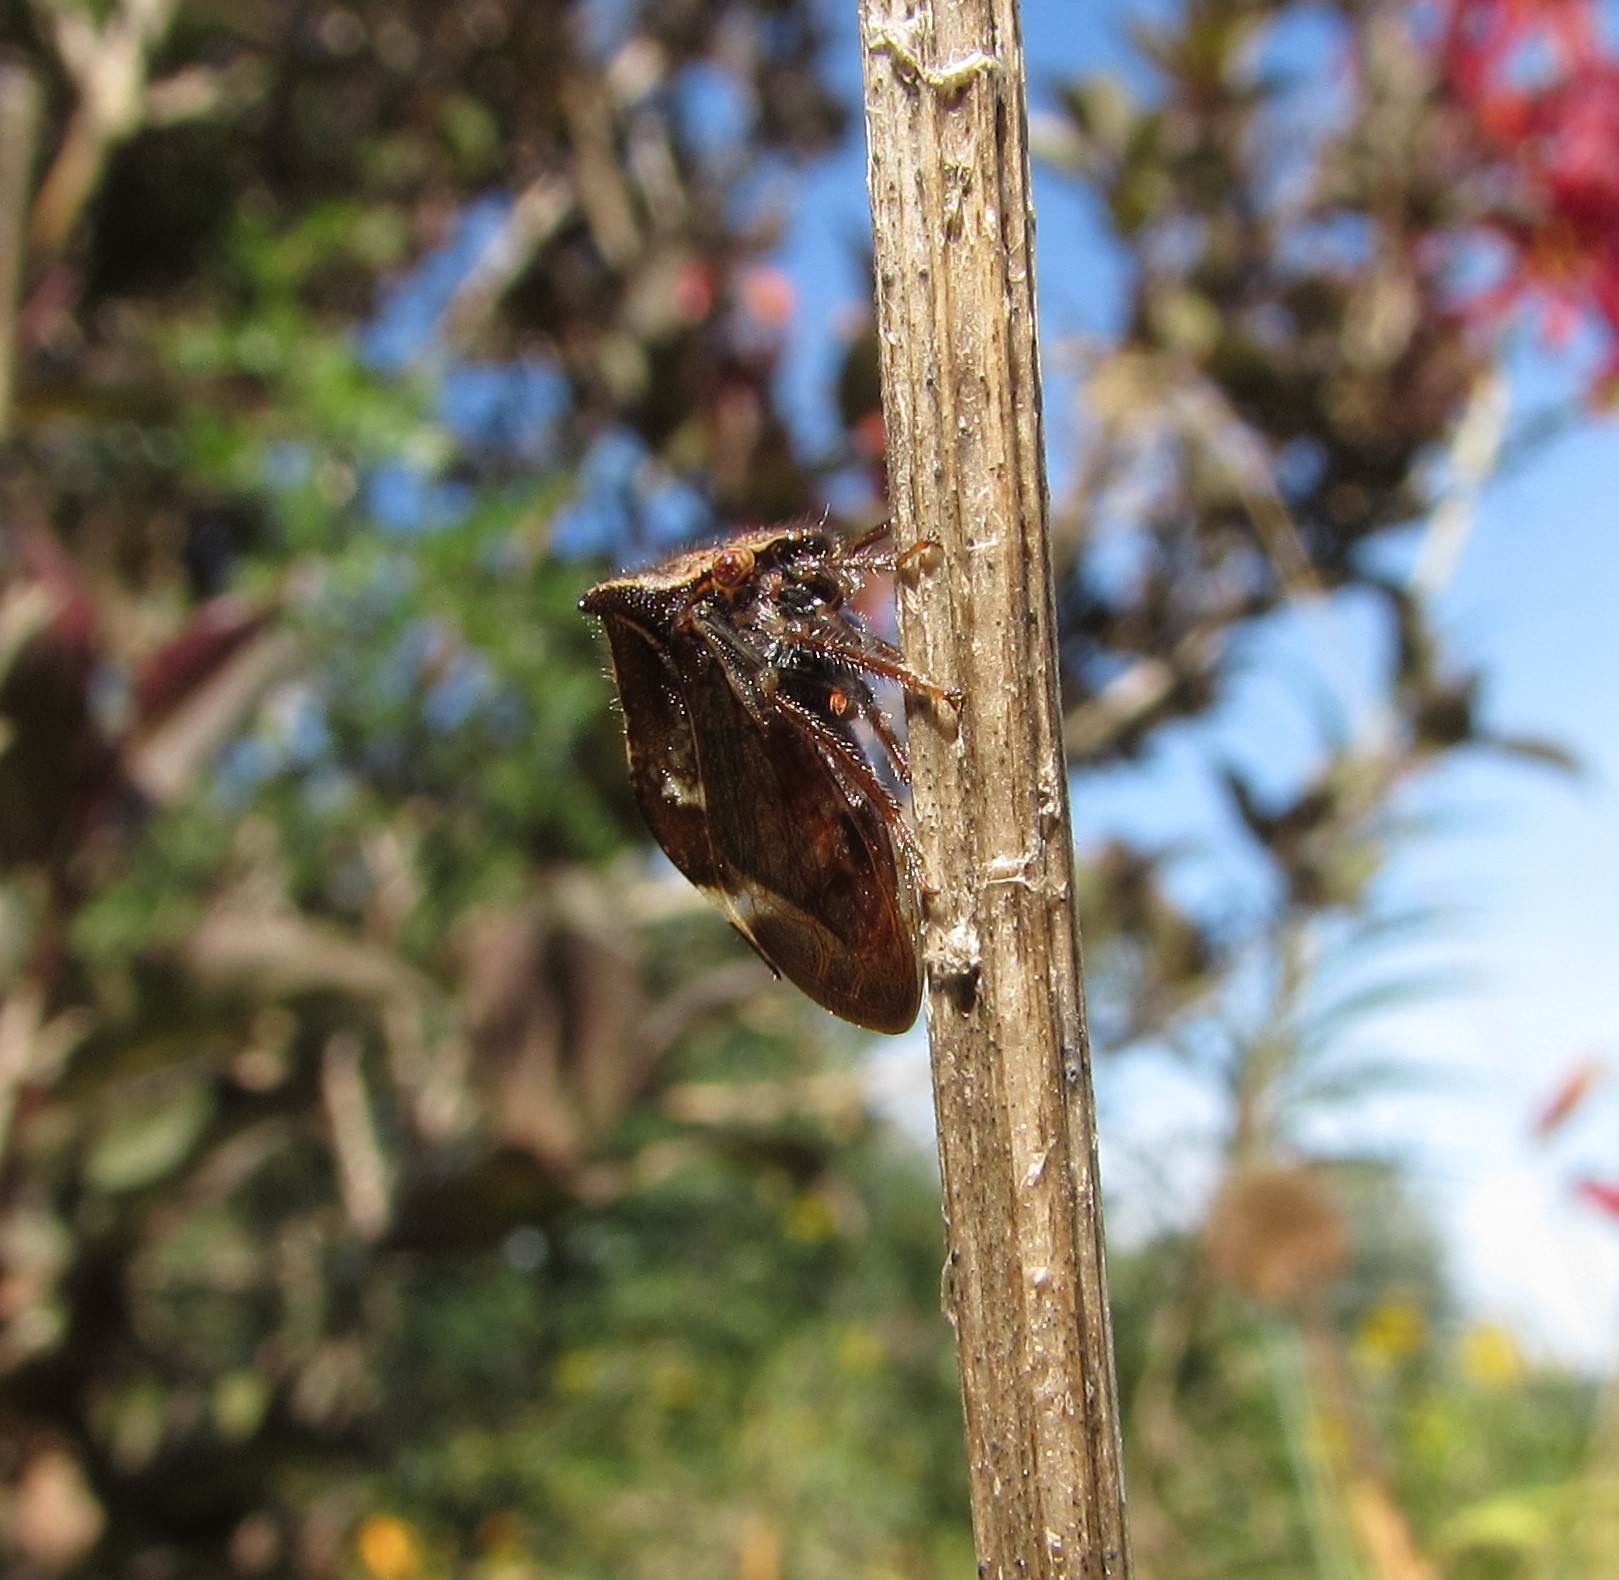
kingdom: Animalia
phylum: Arthropoda
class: Insecta
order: Hemiptera
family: Membracidae
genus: Stictocephala
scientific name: Stictocephala diceros
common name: Two-horned treehopper
